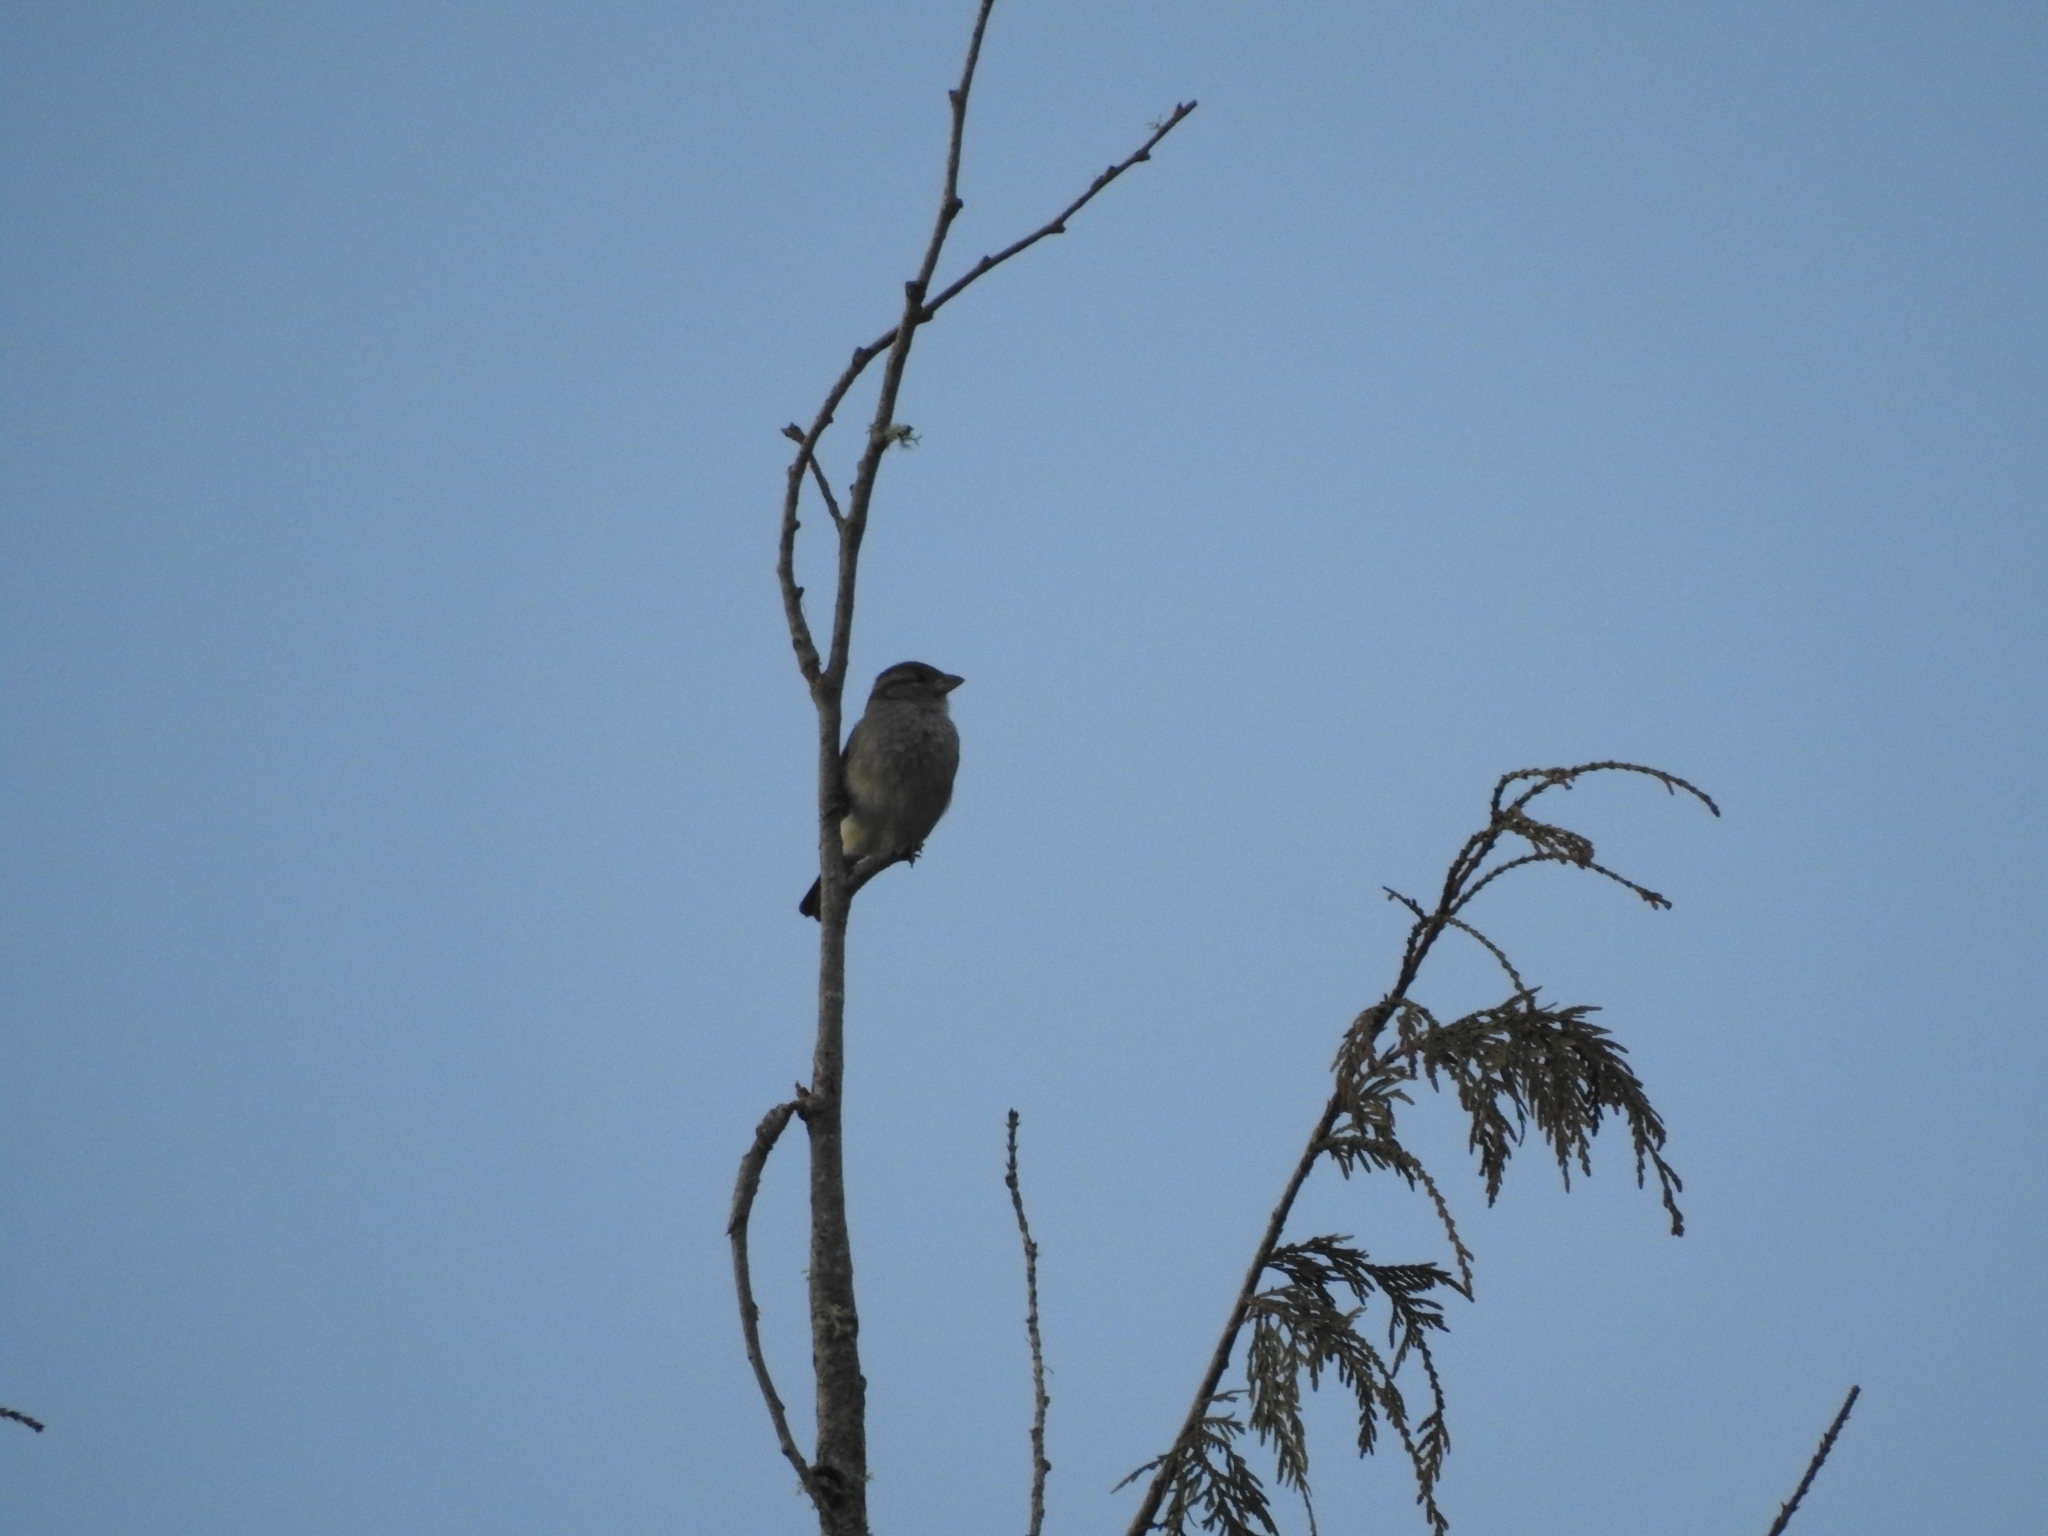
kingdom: Animalia
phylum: Chordata
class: Aves
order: Passeriformes
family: Passeridae
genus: Passer
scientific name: Passer domesticus
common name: House sparrow
